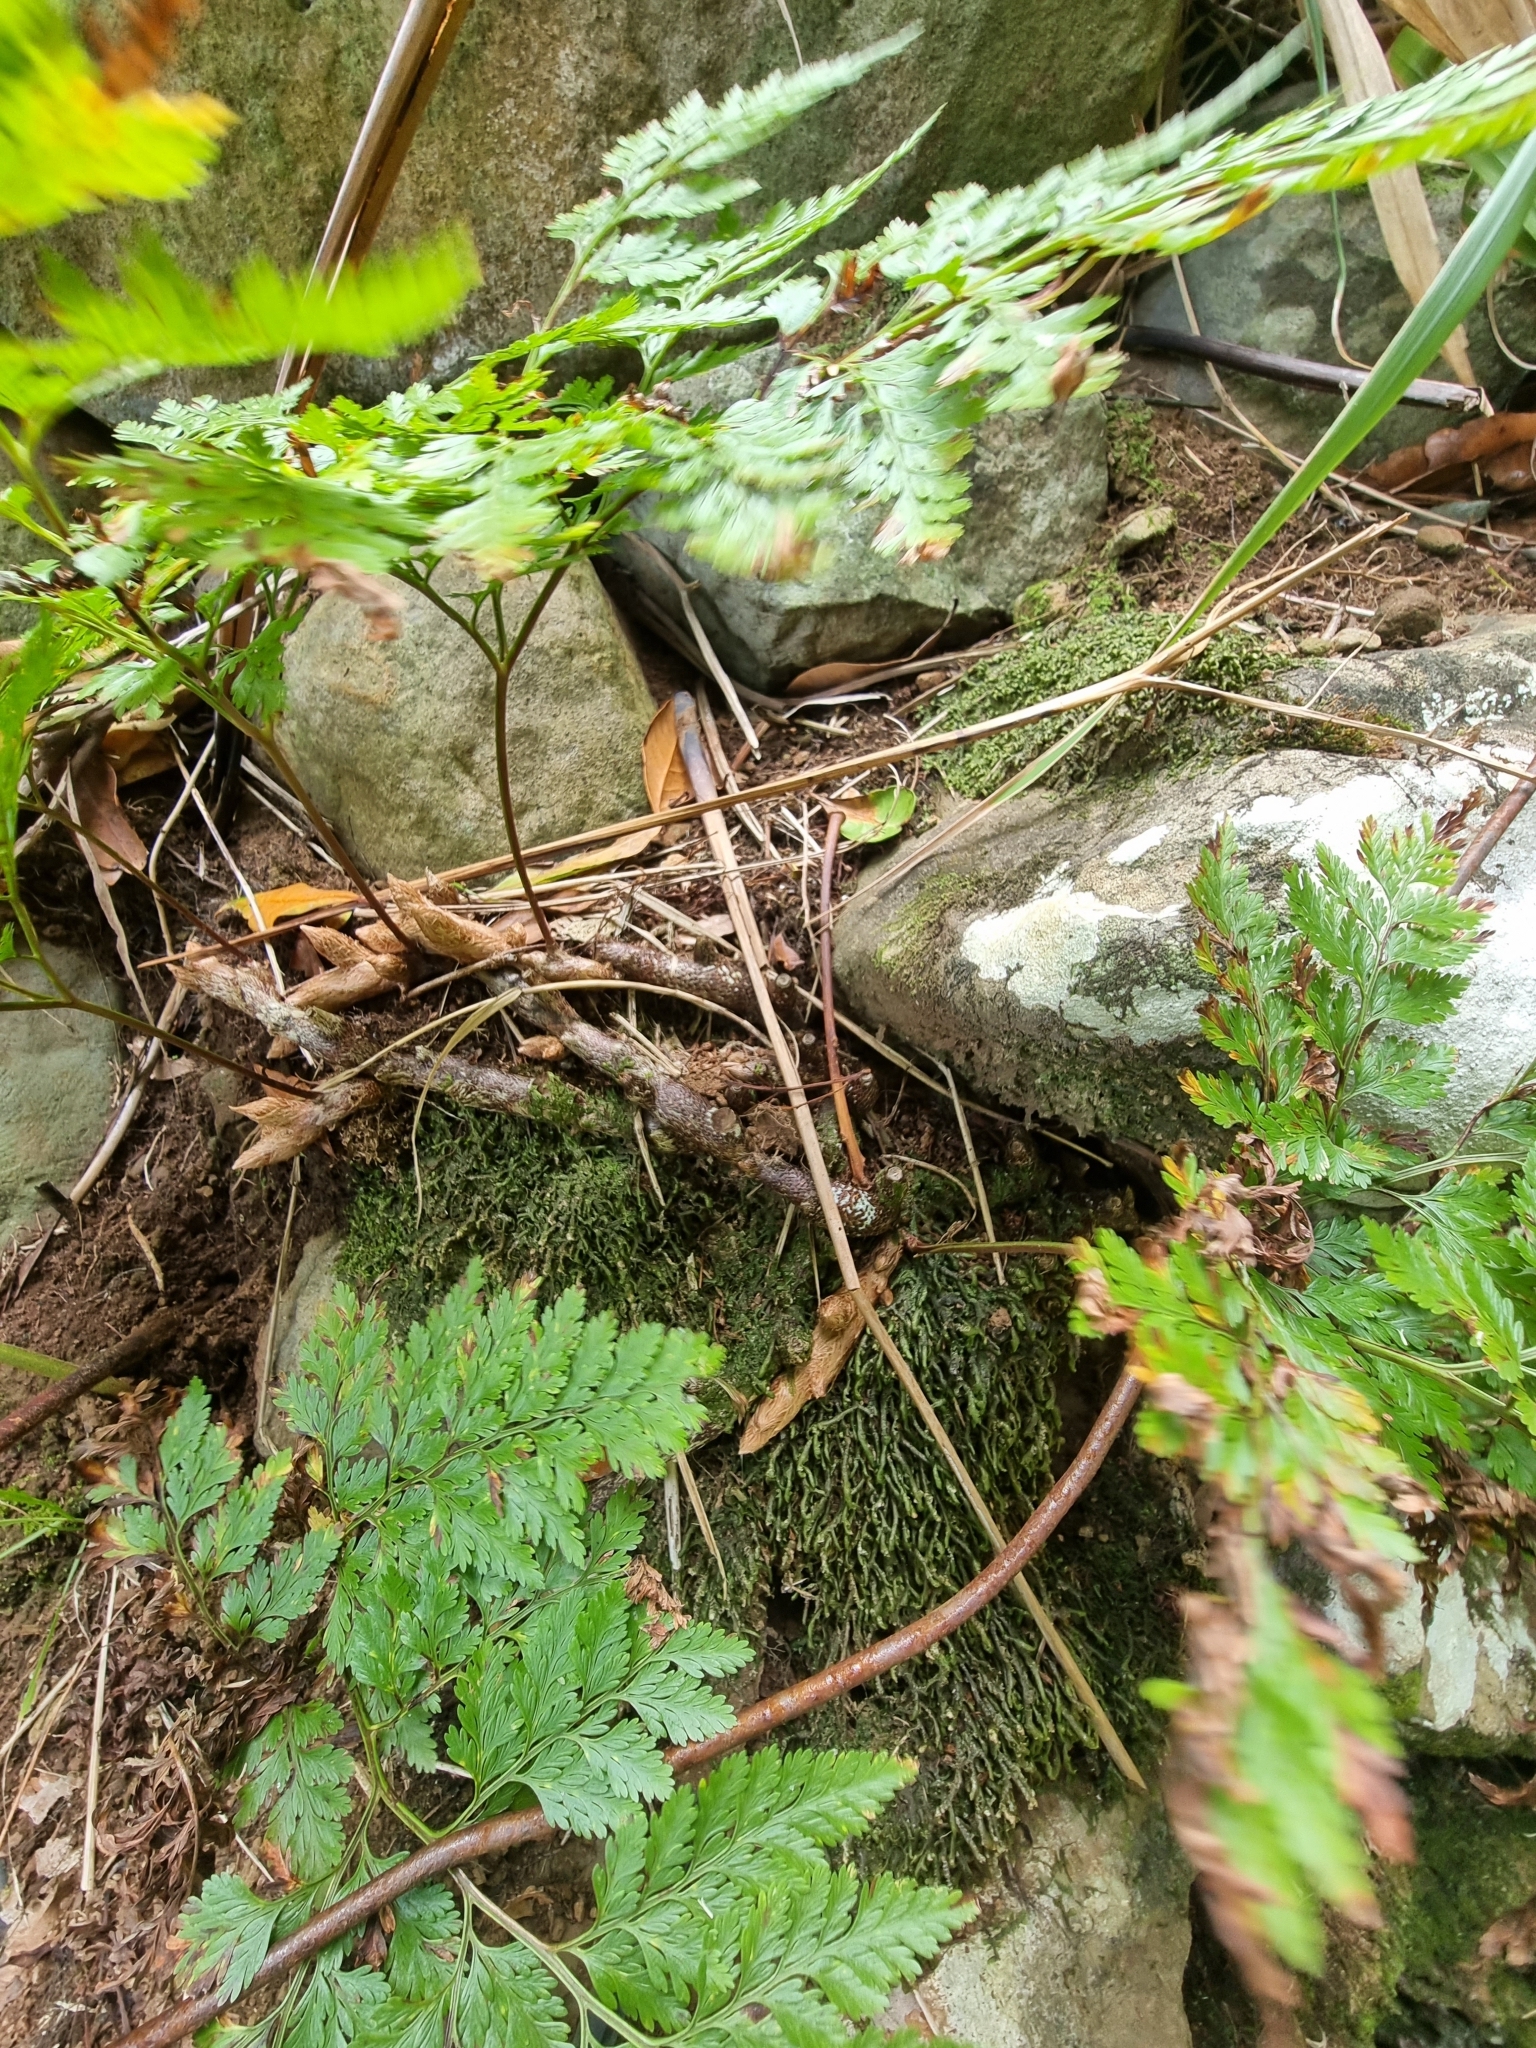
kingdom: Plantae
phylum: Tracheophyta
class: Polypodiopsida
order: Polypodiales
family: Davalliaceae
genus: Davallia
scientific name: Davallia canariensis
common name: Hare's-foot fern
